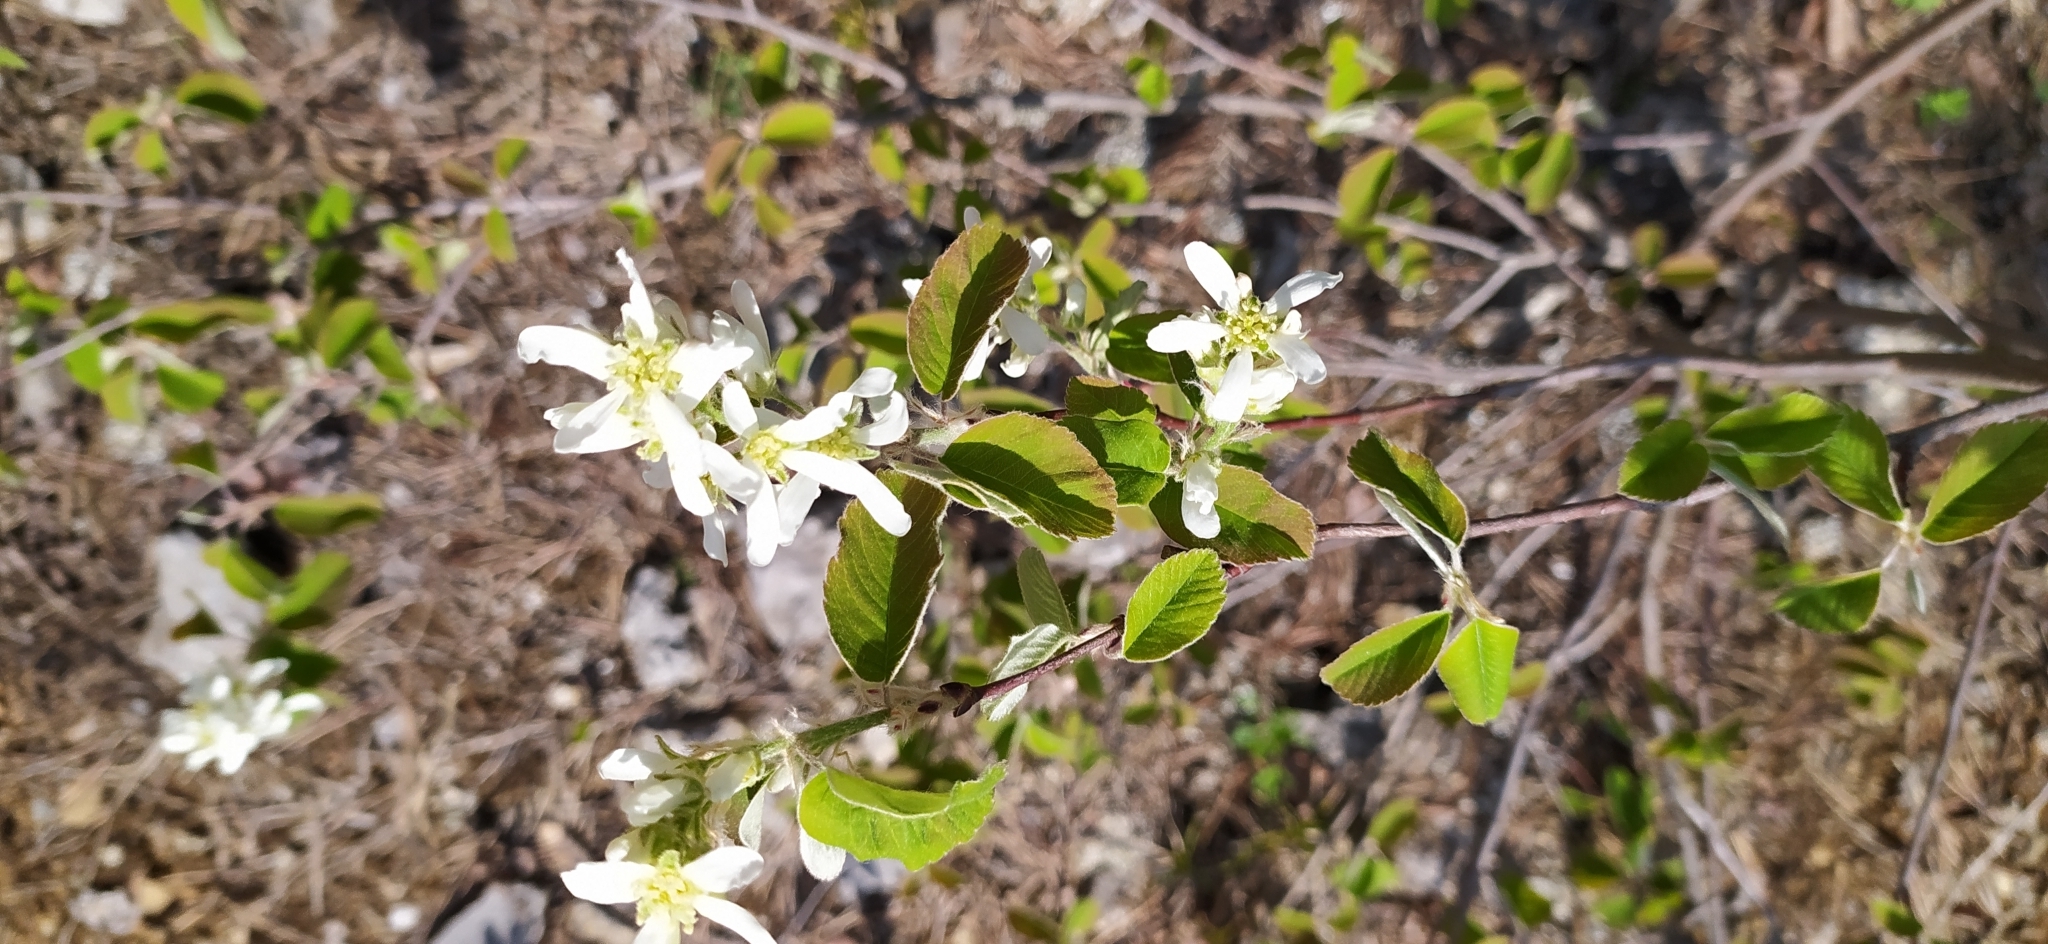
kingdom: Plantae
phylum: Tracheophyta
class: Magnoliopsida
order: Rosales
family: Rosaceae
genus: Amelanchier
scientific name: Amelanchier alnifolia
